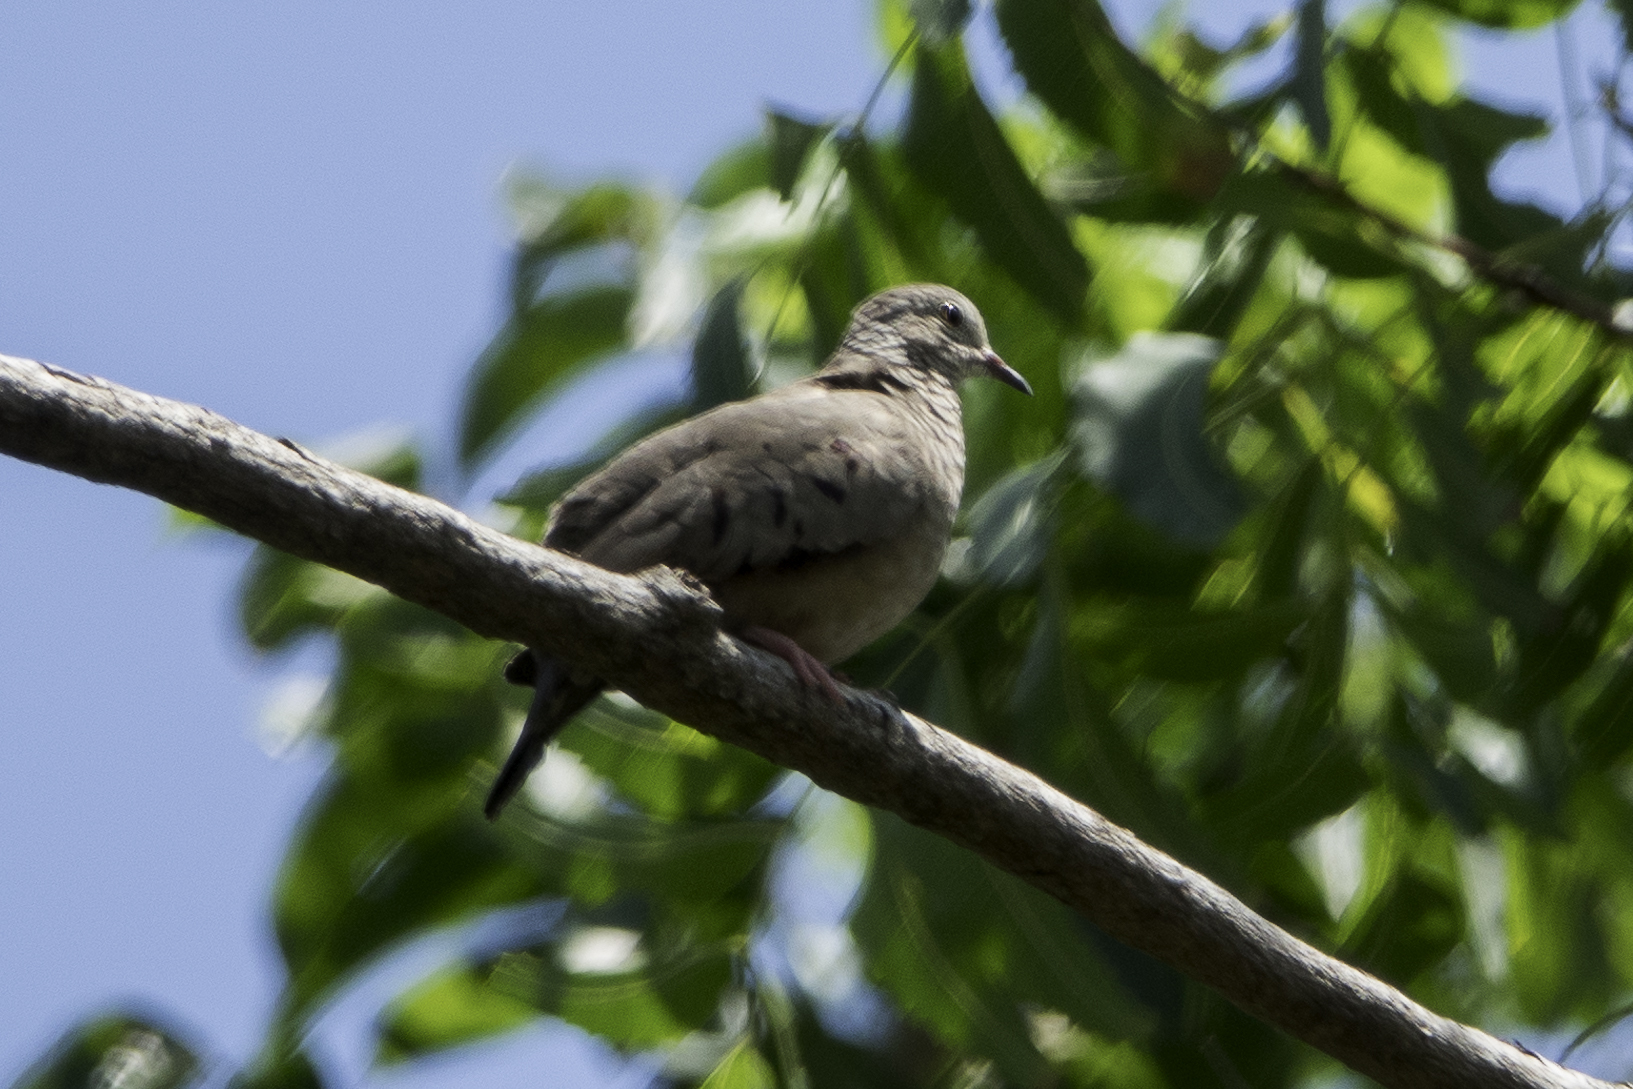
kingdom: Animalia
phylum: Chordata
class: Aves
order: Columbiformes
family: Columbidae
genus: Columbina
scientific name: Columbina passerina
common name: Common ground-dove
